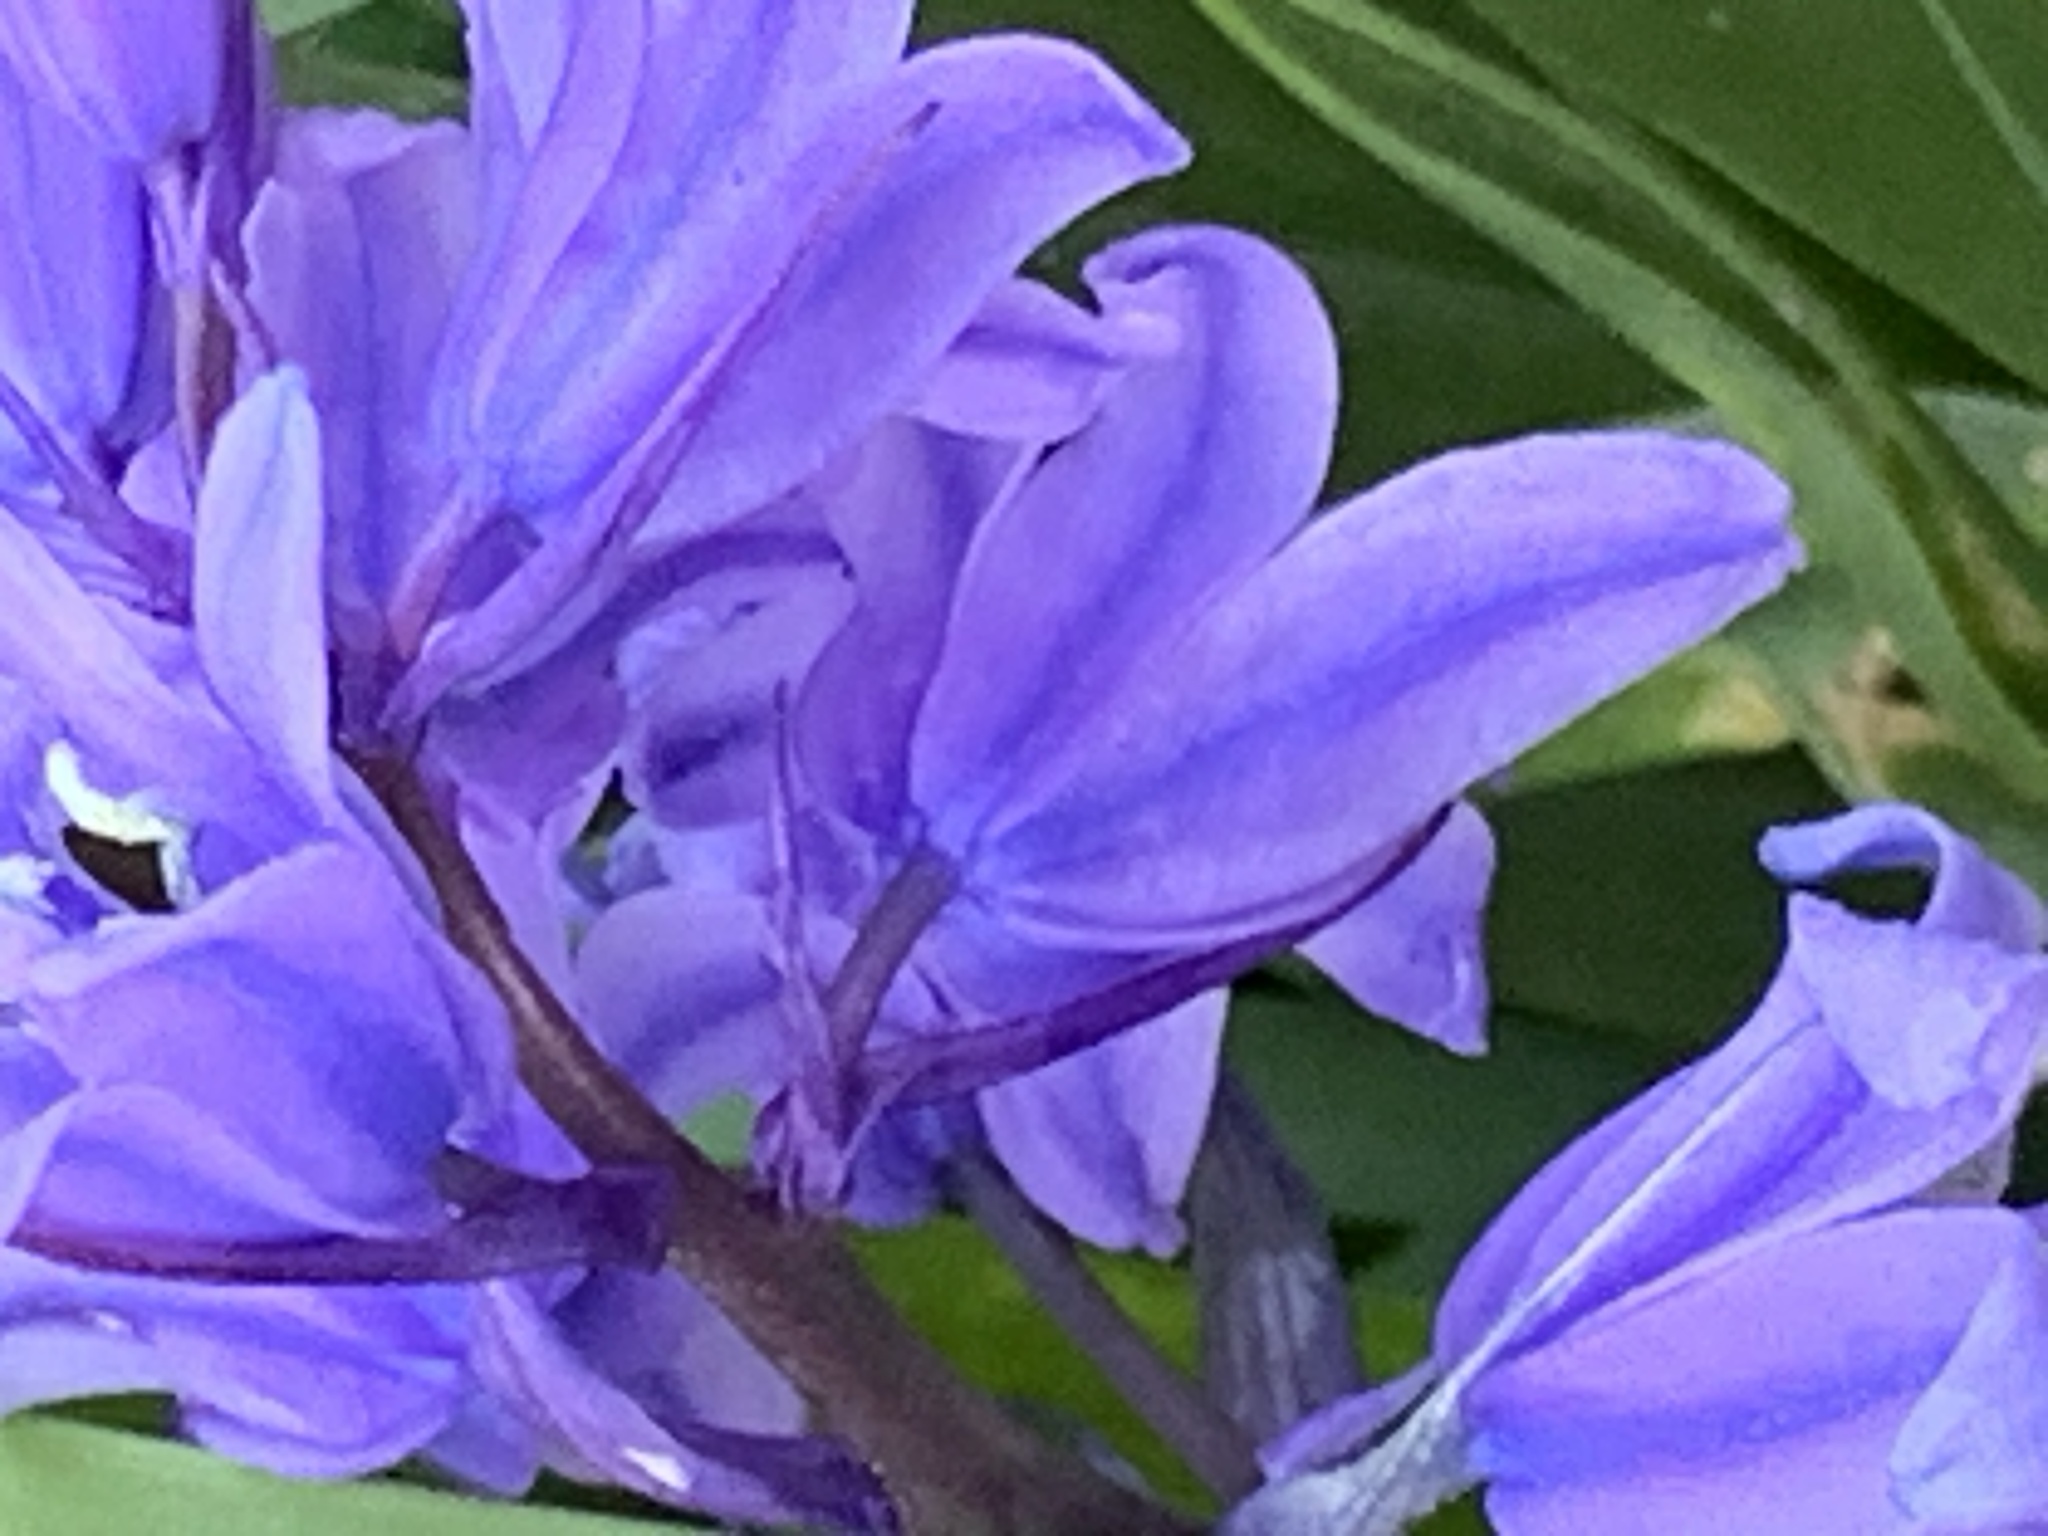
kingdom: Plantae
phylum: Tracheophyta
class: Liliopsida
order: Asparagales
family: Asparagaceae
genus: Hyacinthoides
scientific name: Hyacinthoides massartiana
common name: Hyacinthoides
